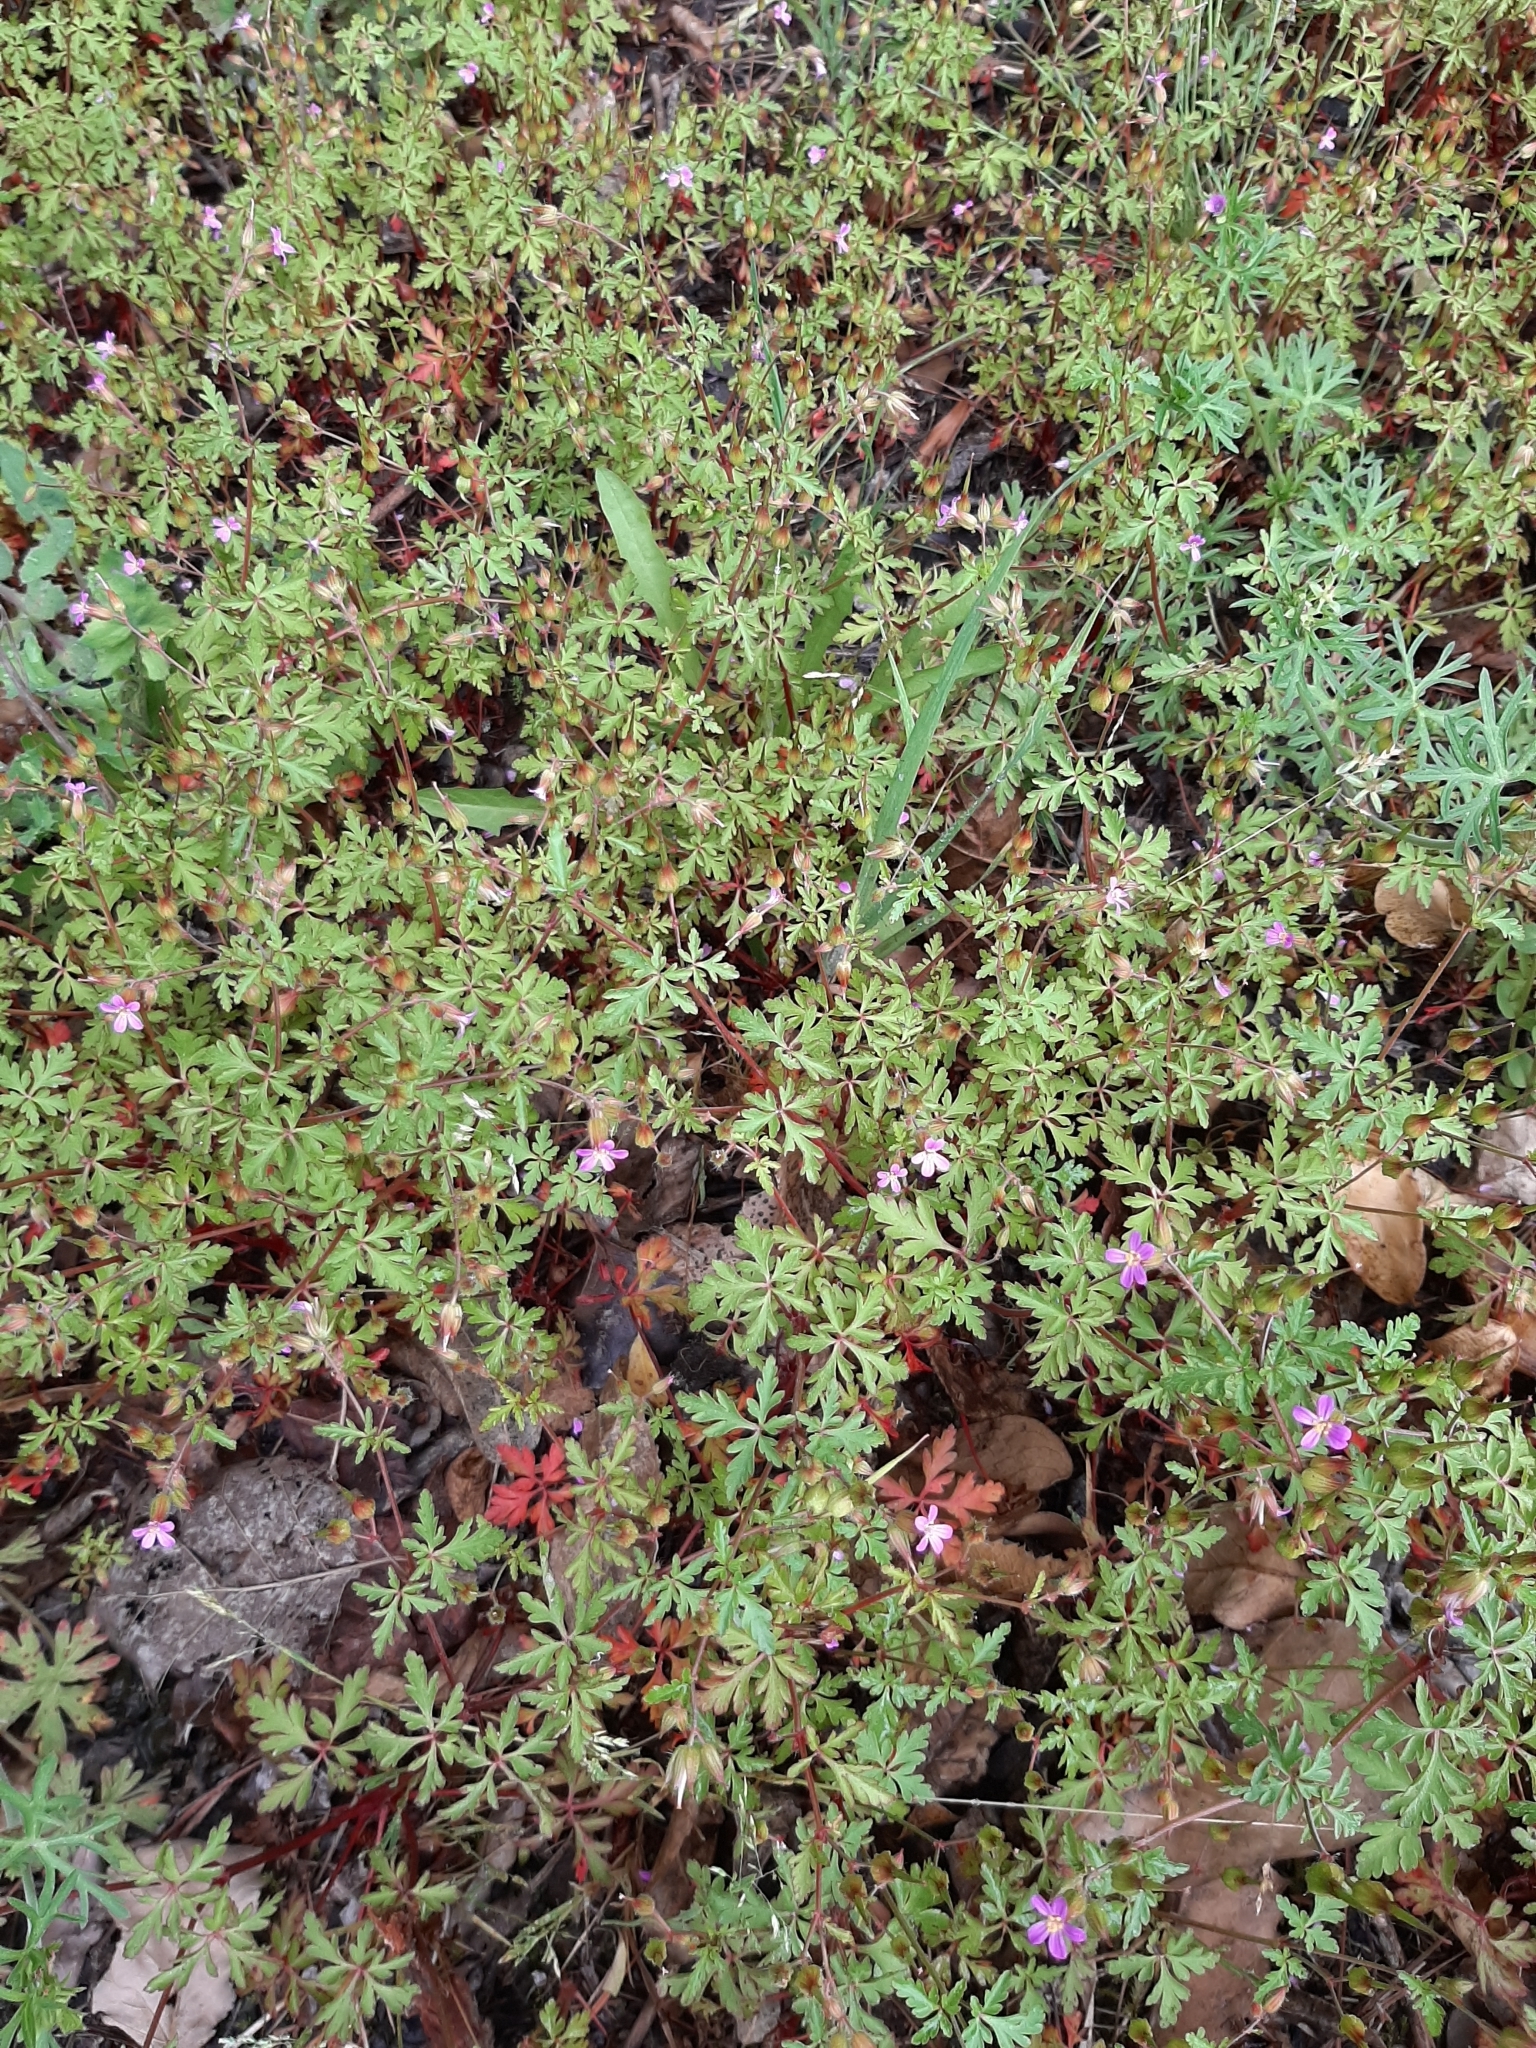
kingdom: Plantae
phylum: Tracheophyta
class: Magnoliopsida
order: Geraniales
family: Geraniaceae
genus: Geranium
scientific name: Geranium robertianum
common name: Herb-robert
